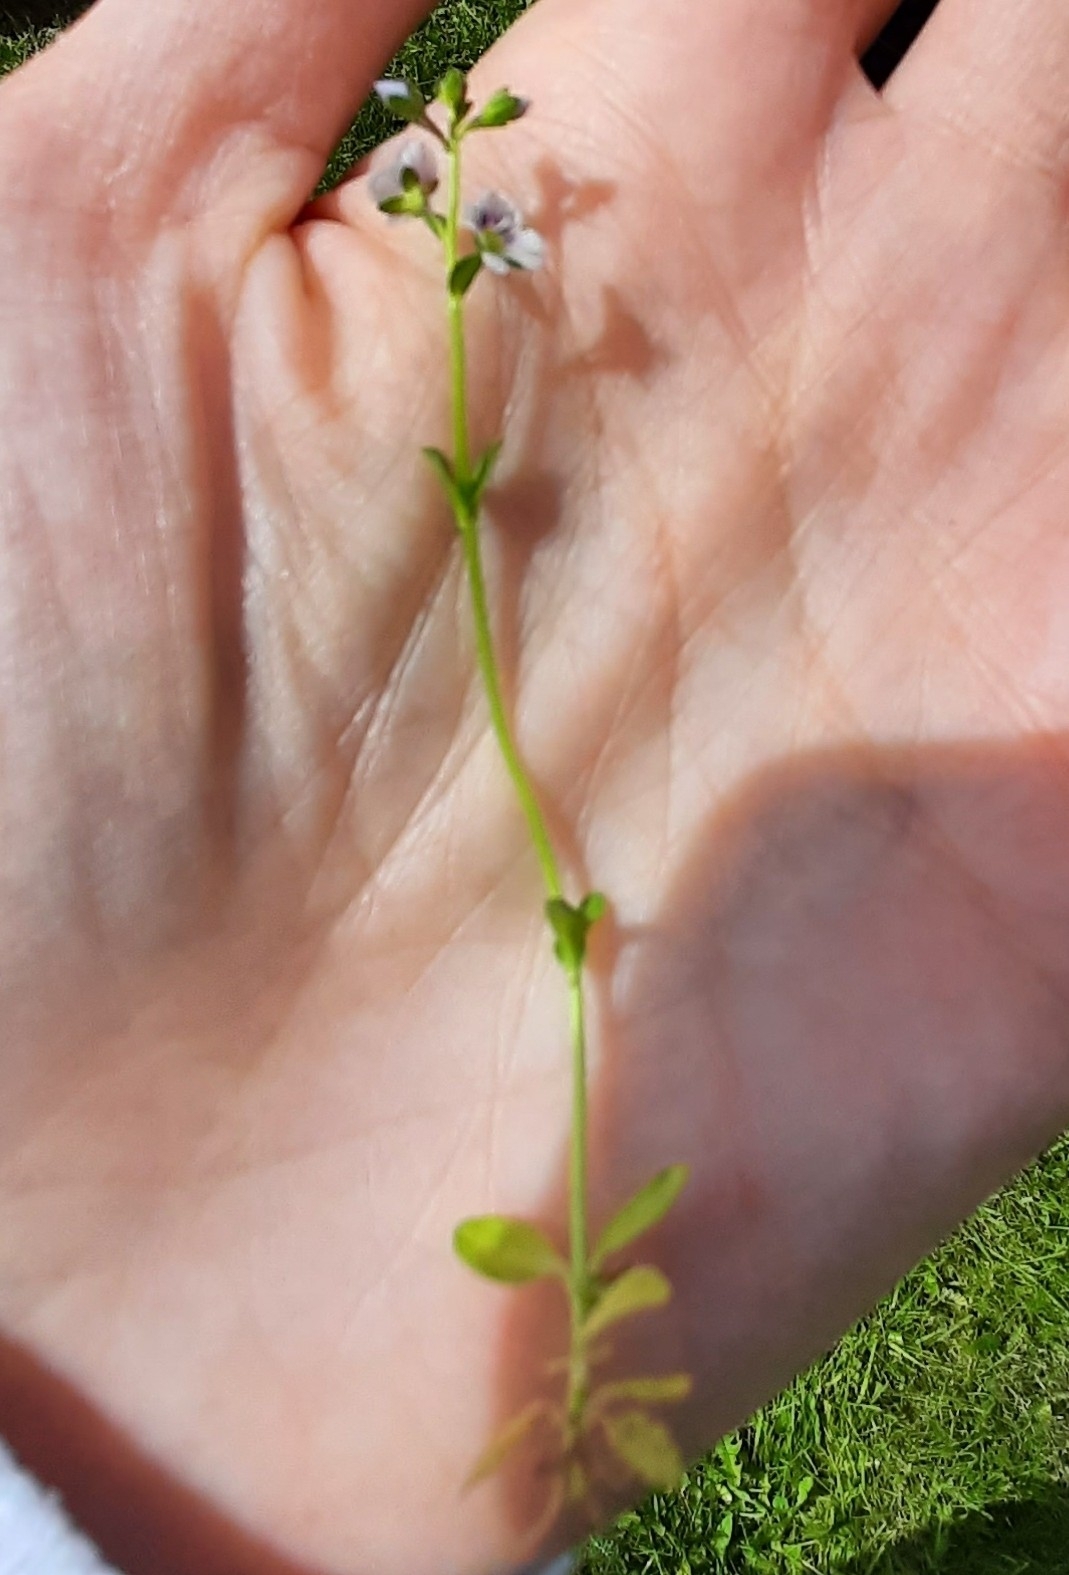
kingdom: Plantae
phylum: Tracheophyta
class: Magnoliopsida
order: Lamiales
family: Plantaginaceae
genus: Veronica
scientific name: Veronica serpyllifolia
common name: Thyme-leaved speedwell
